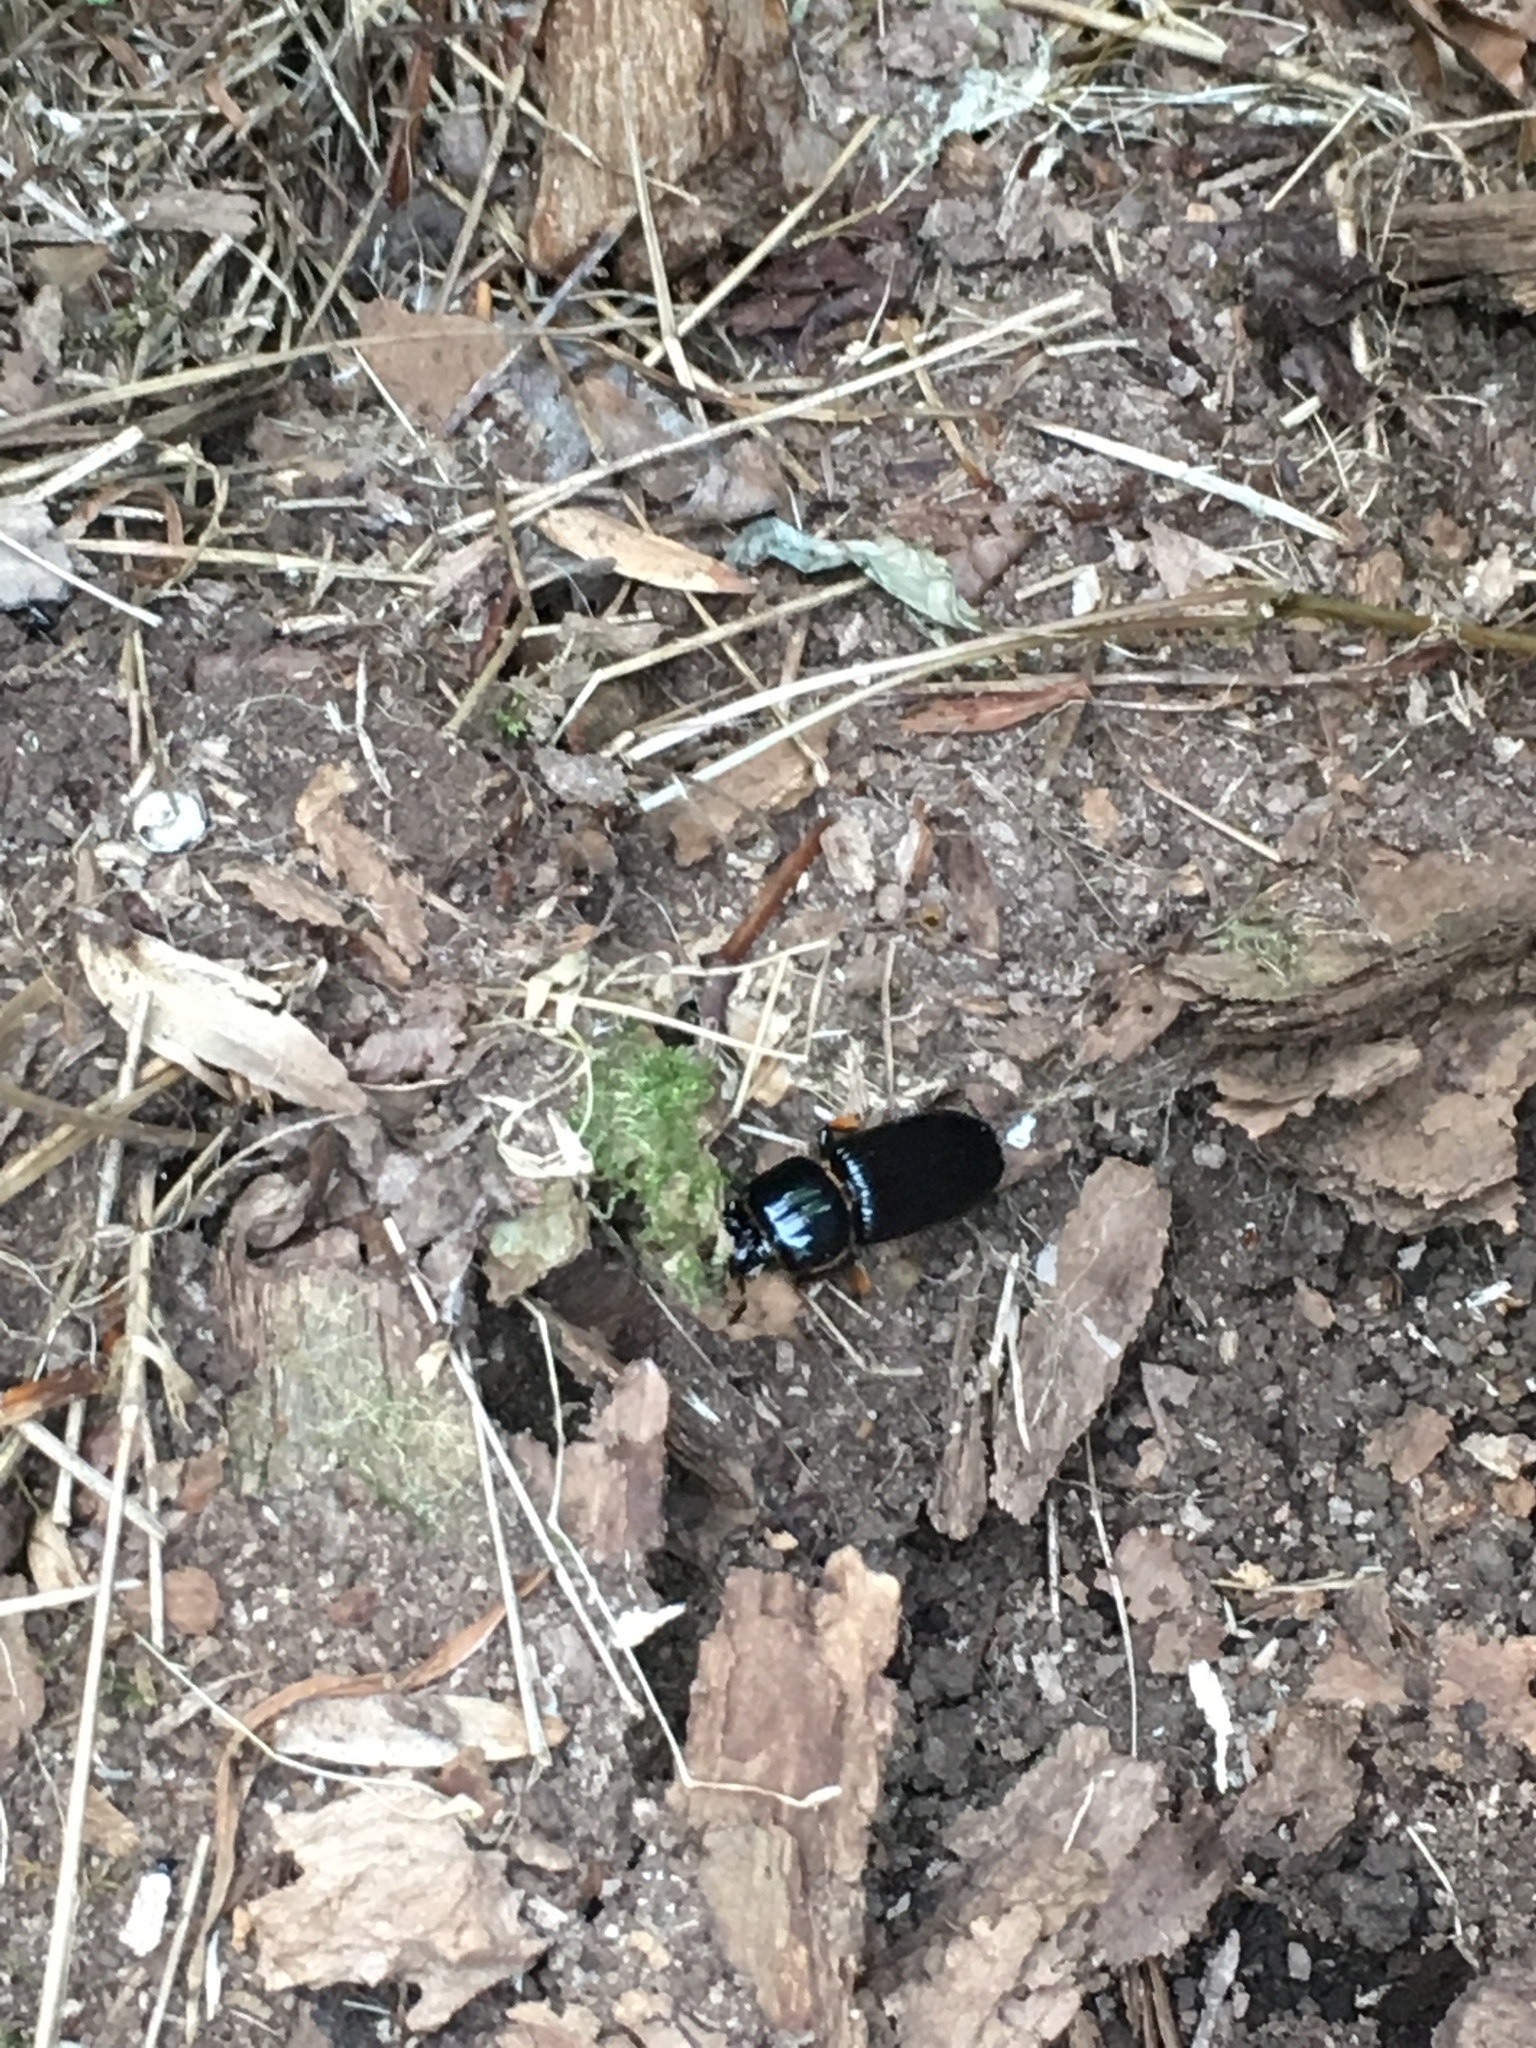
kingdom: Animalia
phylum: Arthropoda
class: Insecta
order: Coleoptera
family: Passalidae
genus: Odontotaenius
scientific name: Odontotaenius disjunctus
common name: Patent leather beetle
